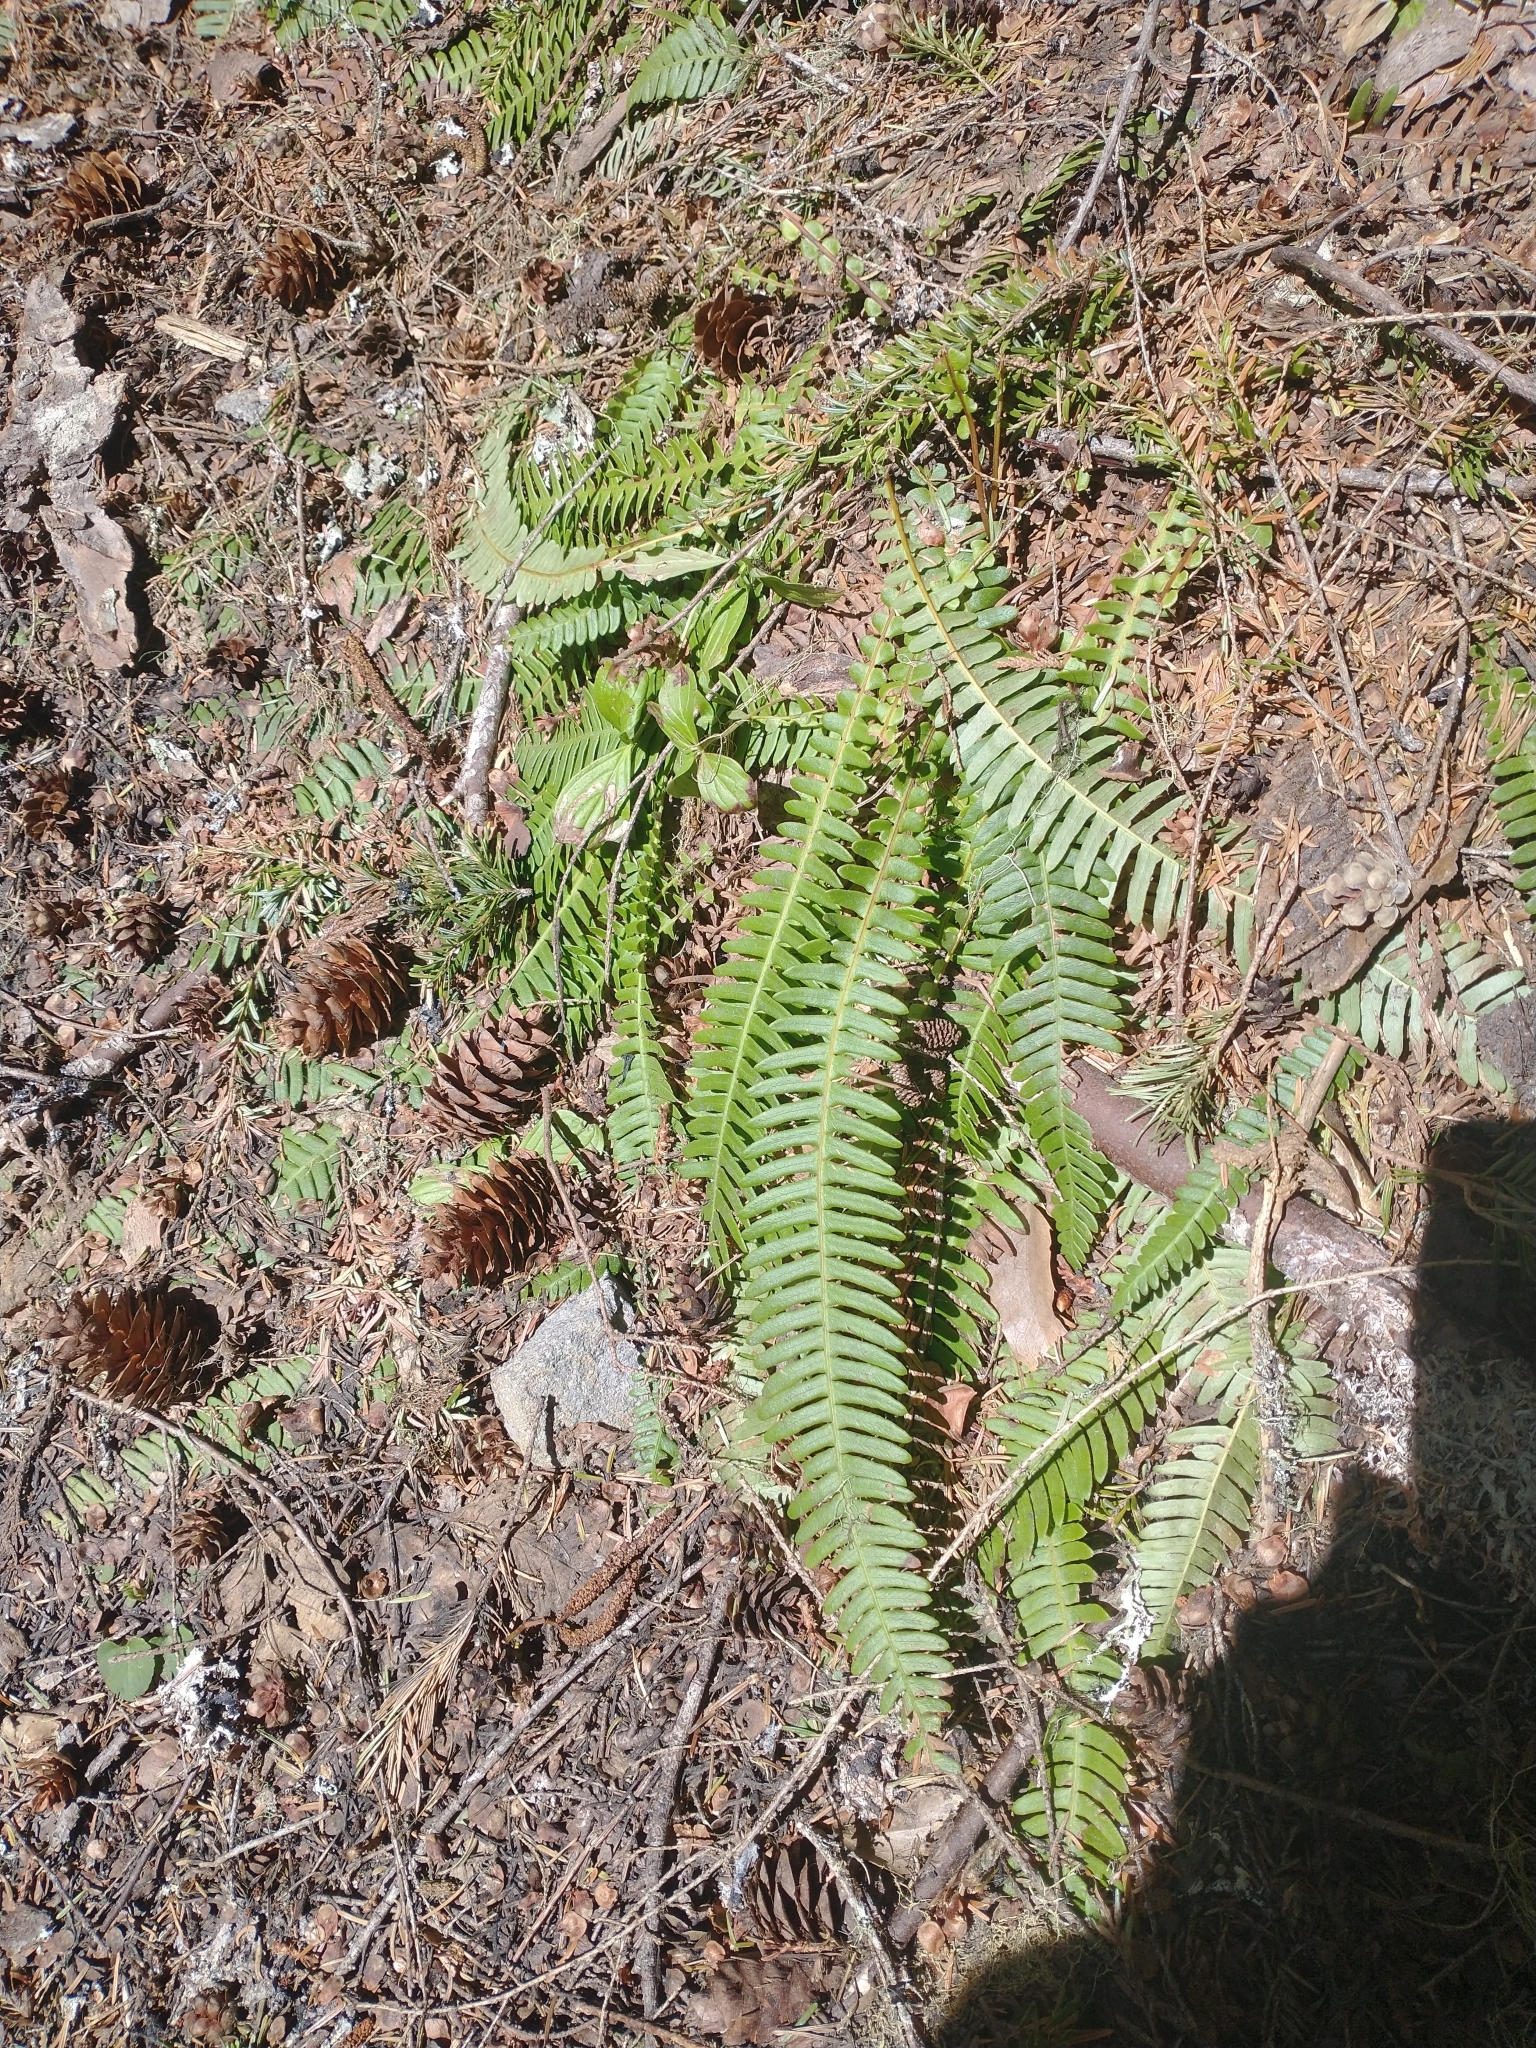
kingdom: Plantae
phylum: Tracheophyta
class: Polypodiopsida
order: Polypodiales
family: Blechnaceae
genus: Struthiopteris
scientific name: Struthiopteris spicant
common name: Deer fern
